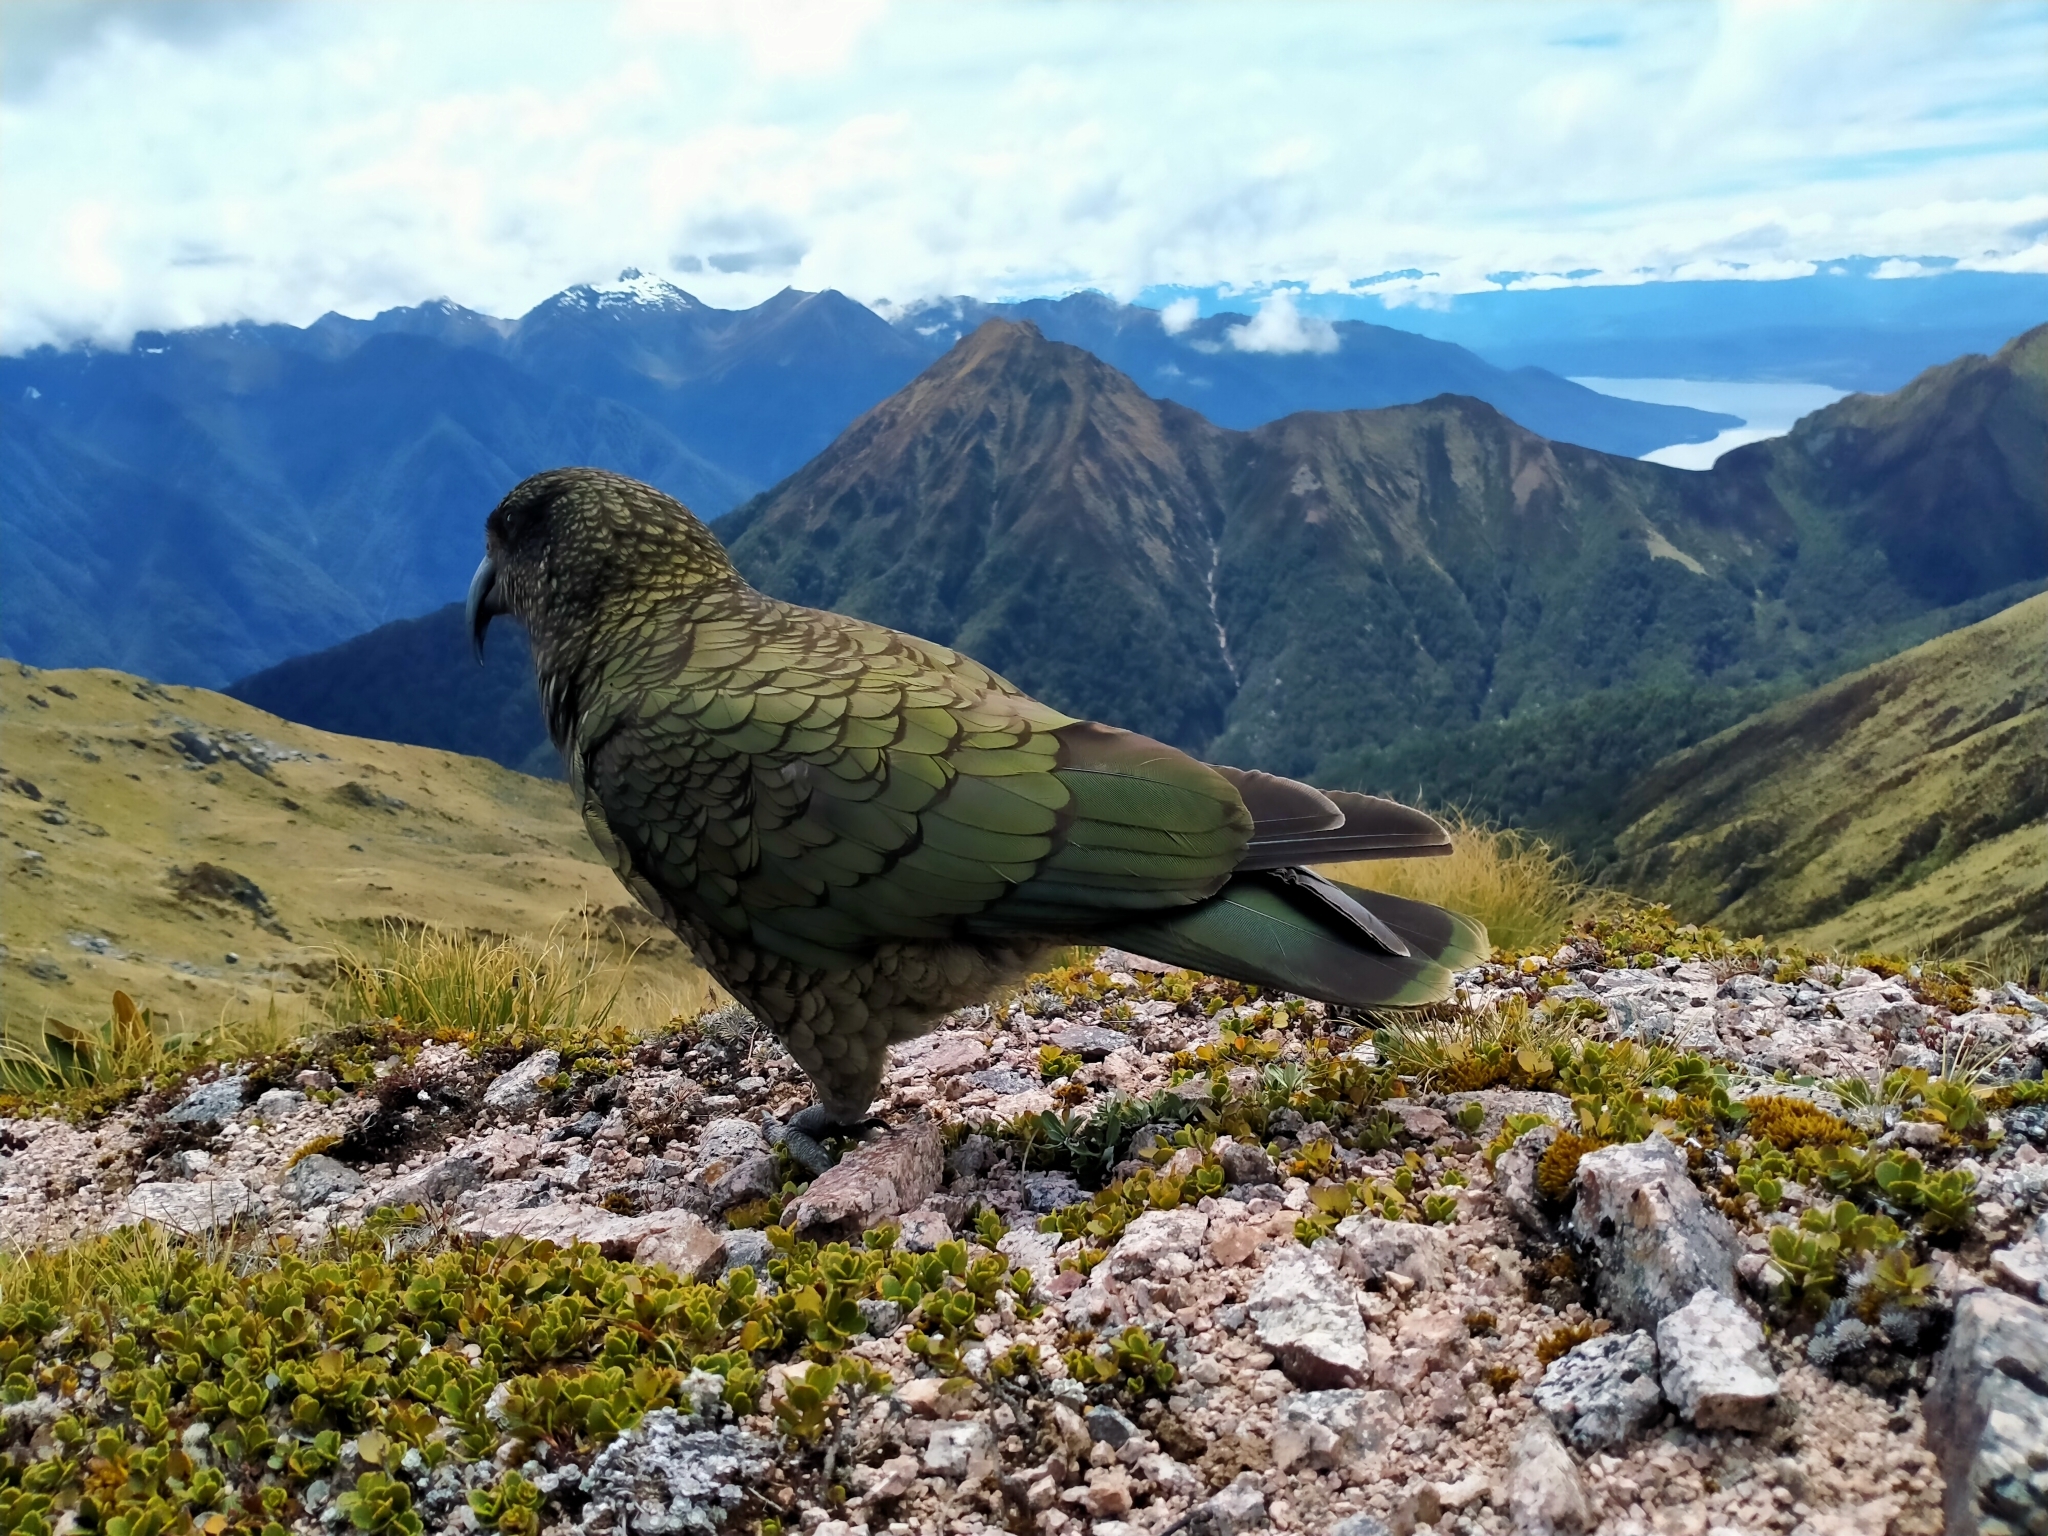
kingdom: Animalia
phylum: Chordata
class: Aves
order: Psittaciformes
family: Psittacidae
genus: Nestor
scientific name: Nestor notabilis
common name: Kea
